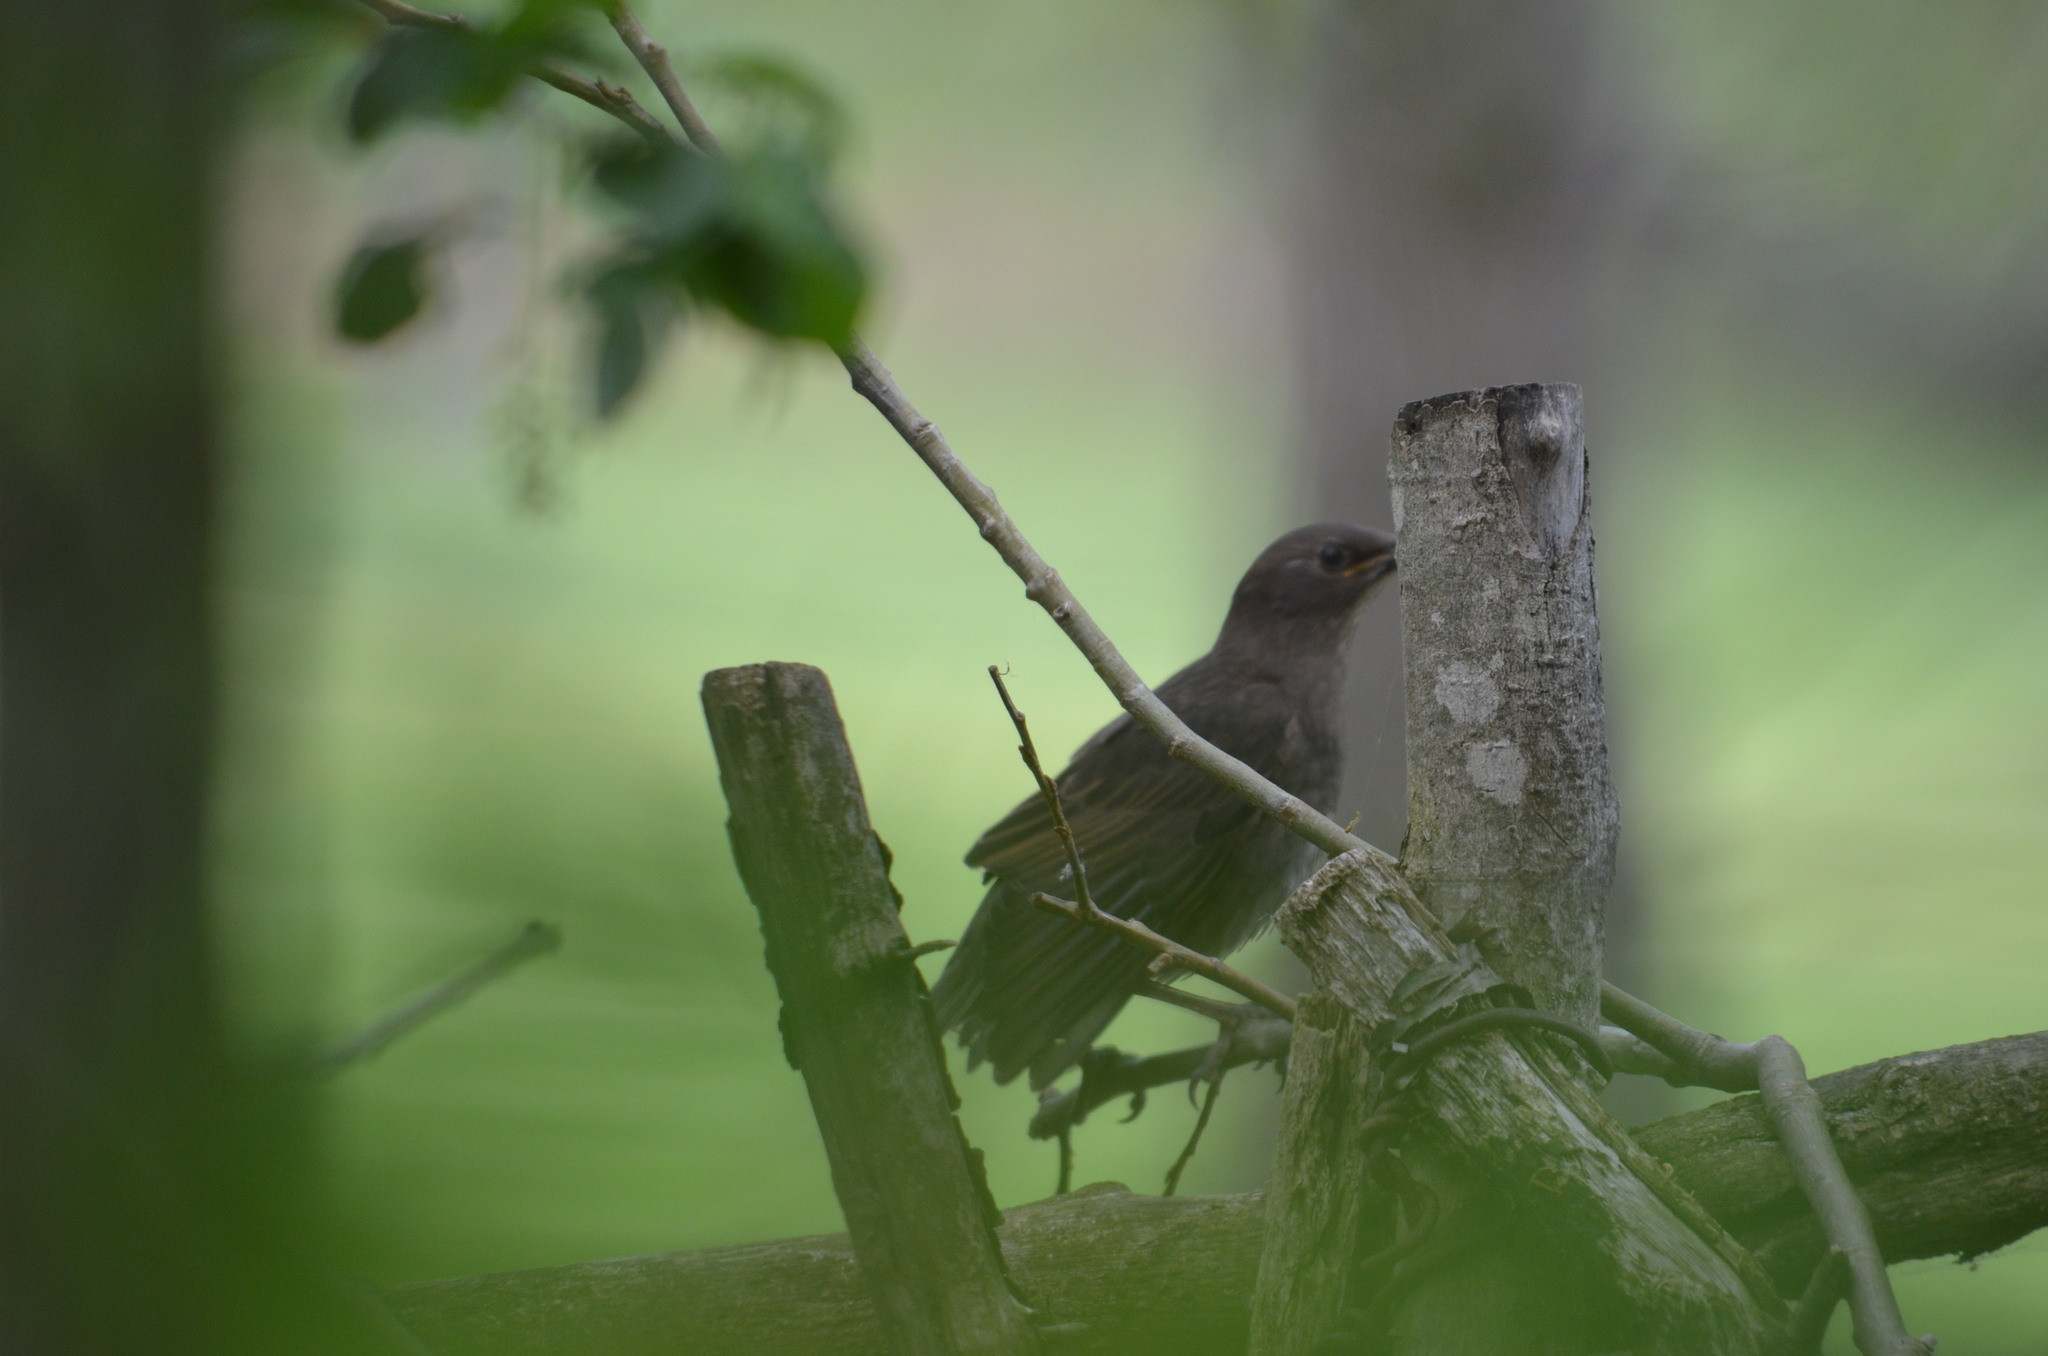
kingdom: Animalia
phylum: Chordata
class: Aves
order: Passeriformes
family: Sturnidae
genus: Sturnus
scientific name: Sturnus vulgaris
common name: Common starling
